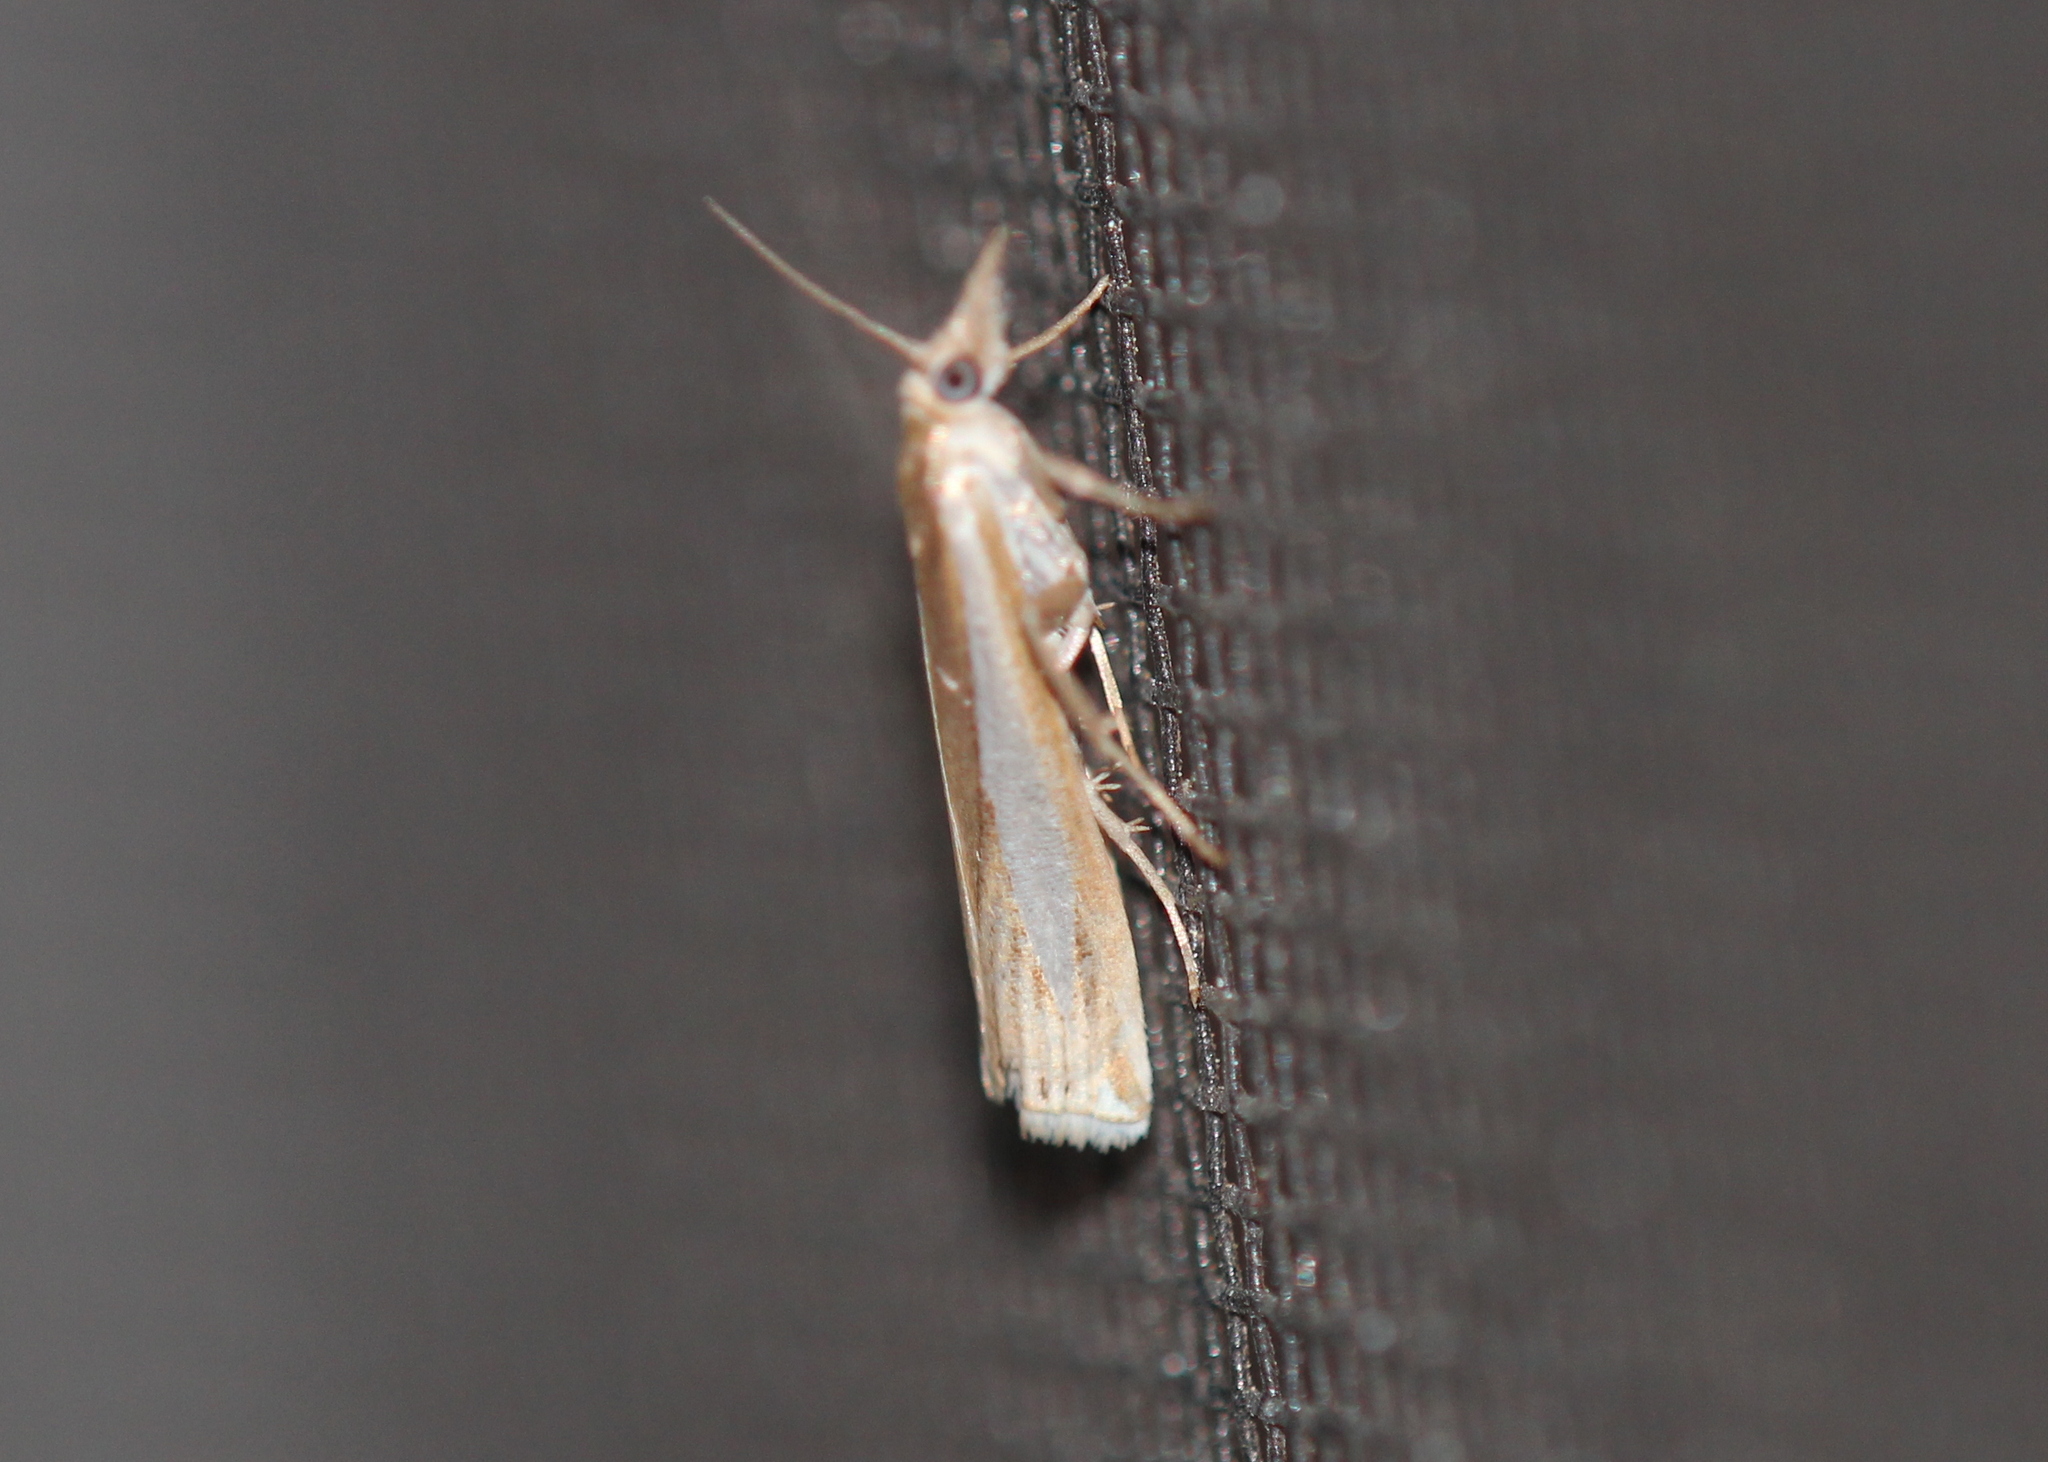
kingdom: Animalia
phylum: Arthropoda
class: Insecta
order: Lepidoptera
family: Crambidae
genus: Crambus
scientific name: Crambus praefectellus
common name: Common grass-veneer
